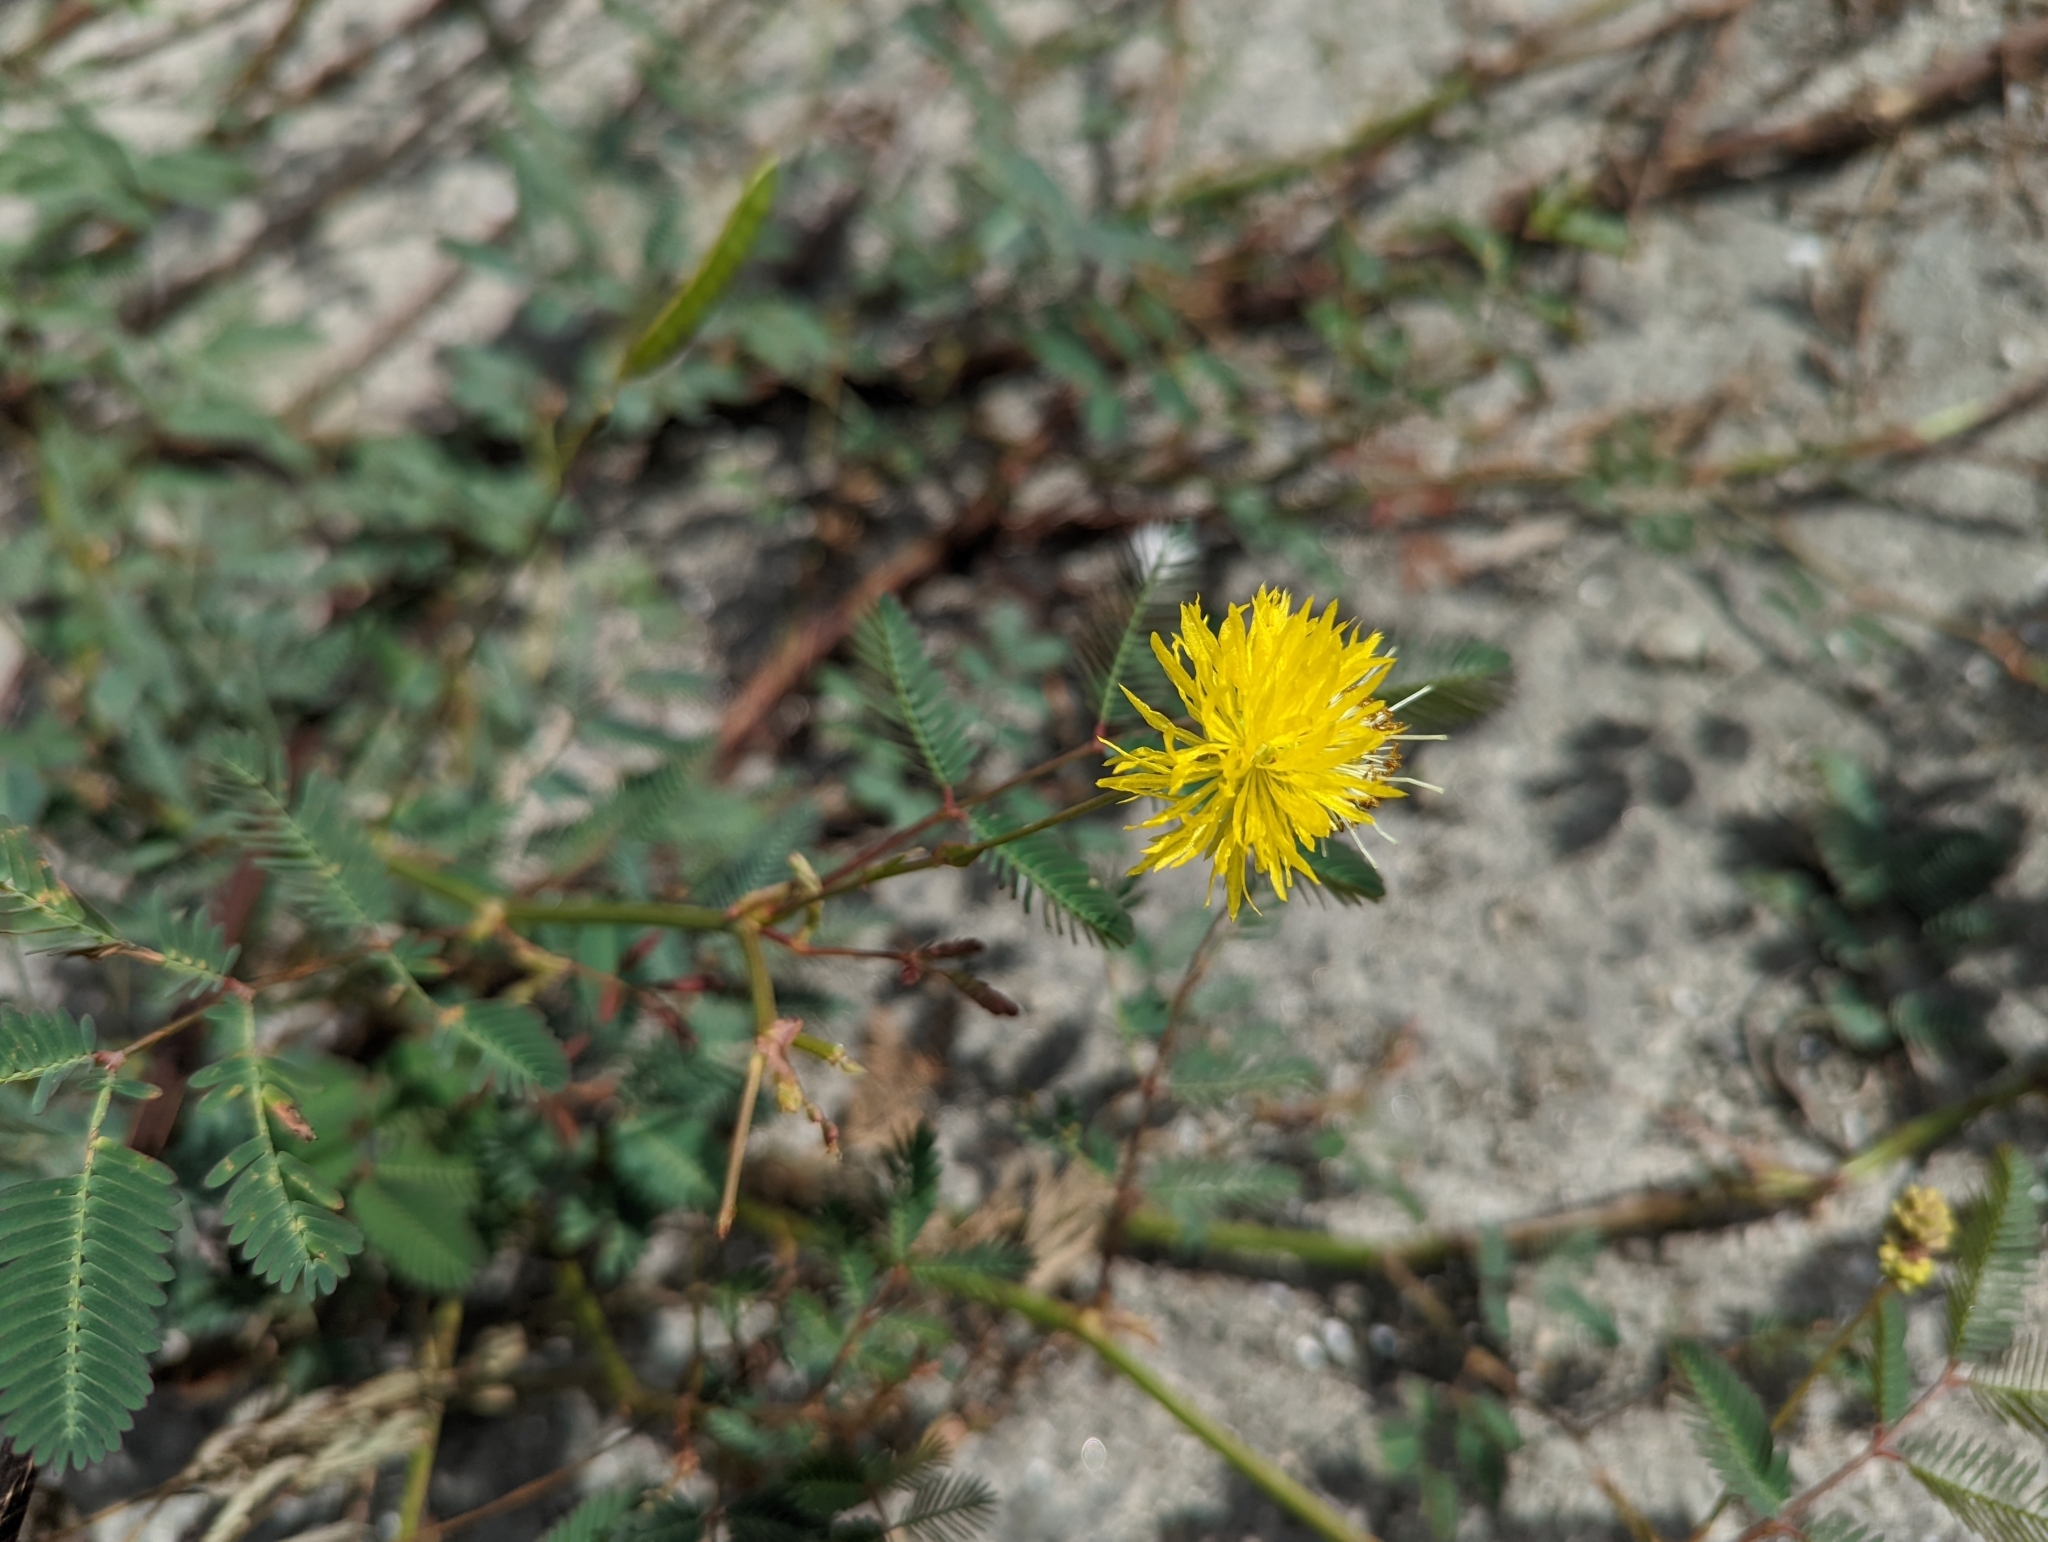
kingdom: Plantae
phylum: Tracheophyta
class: Magnoliopsida
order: Fabales
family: Fabaceae
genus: Neptunia
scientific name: Neptunia plena
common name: Dead and awake
